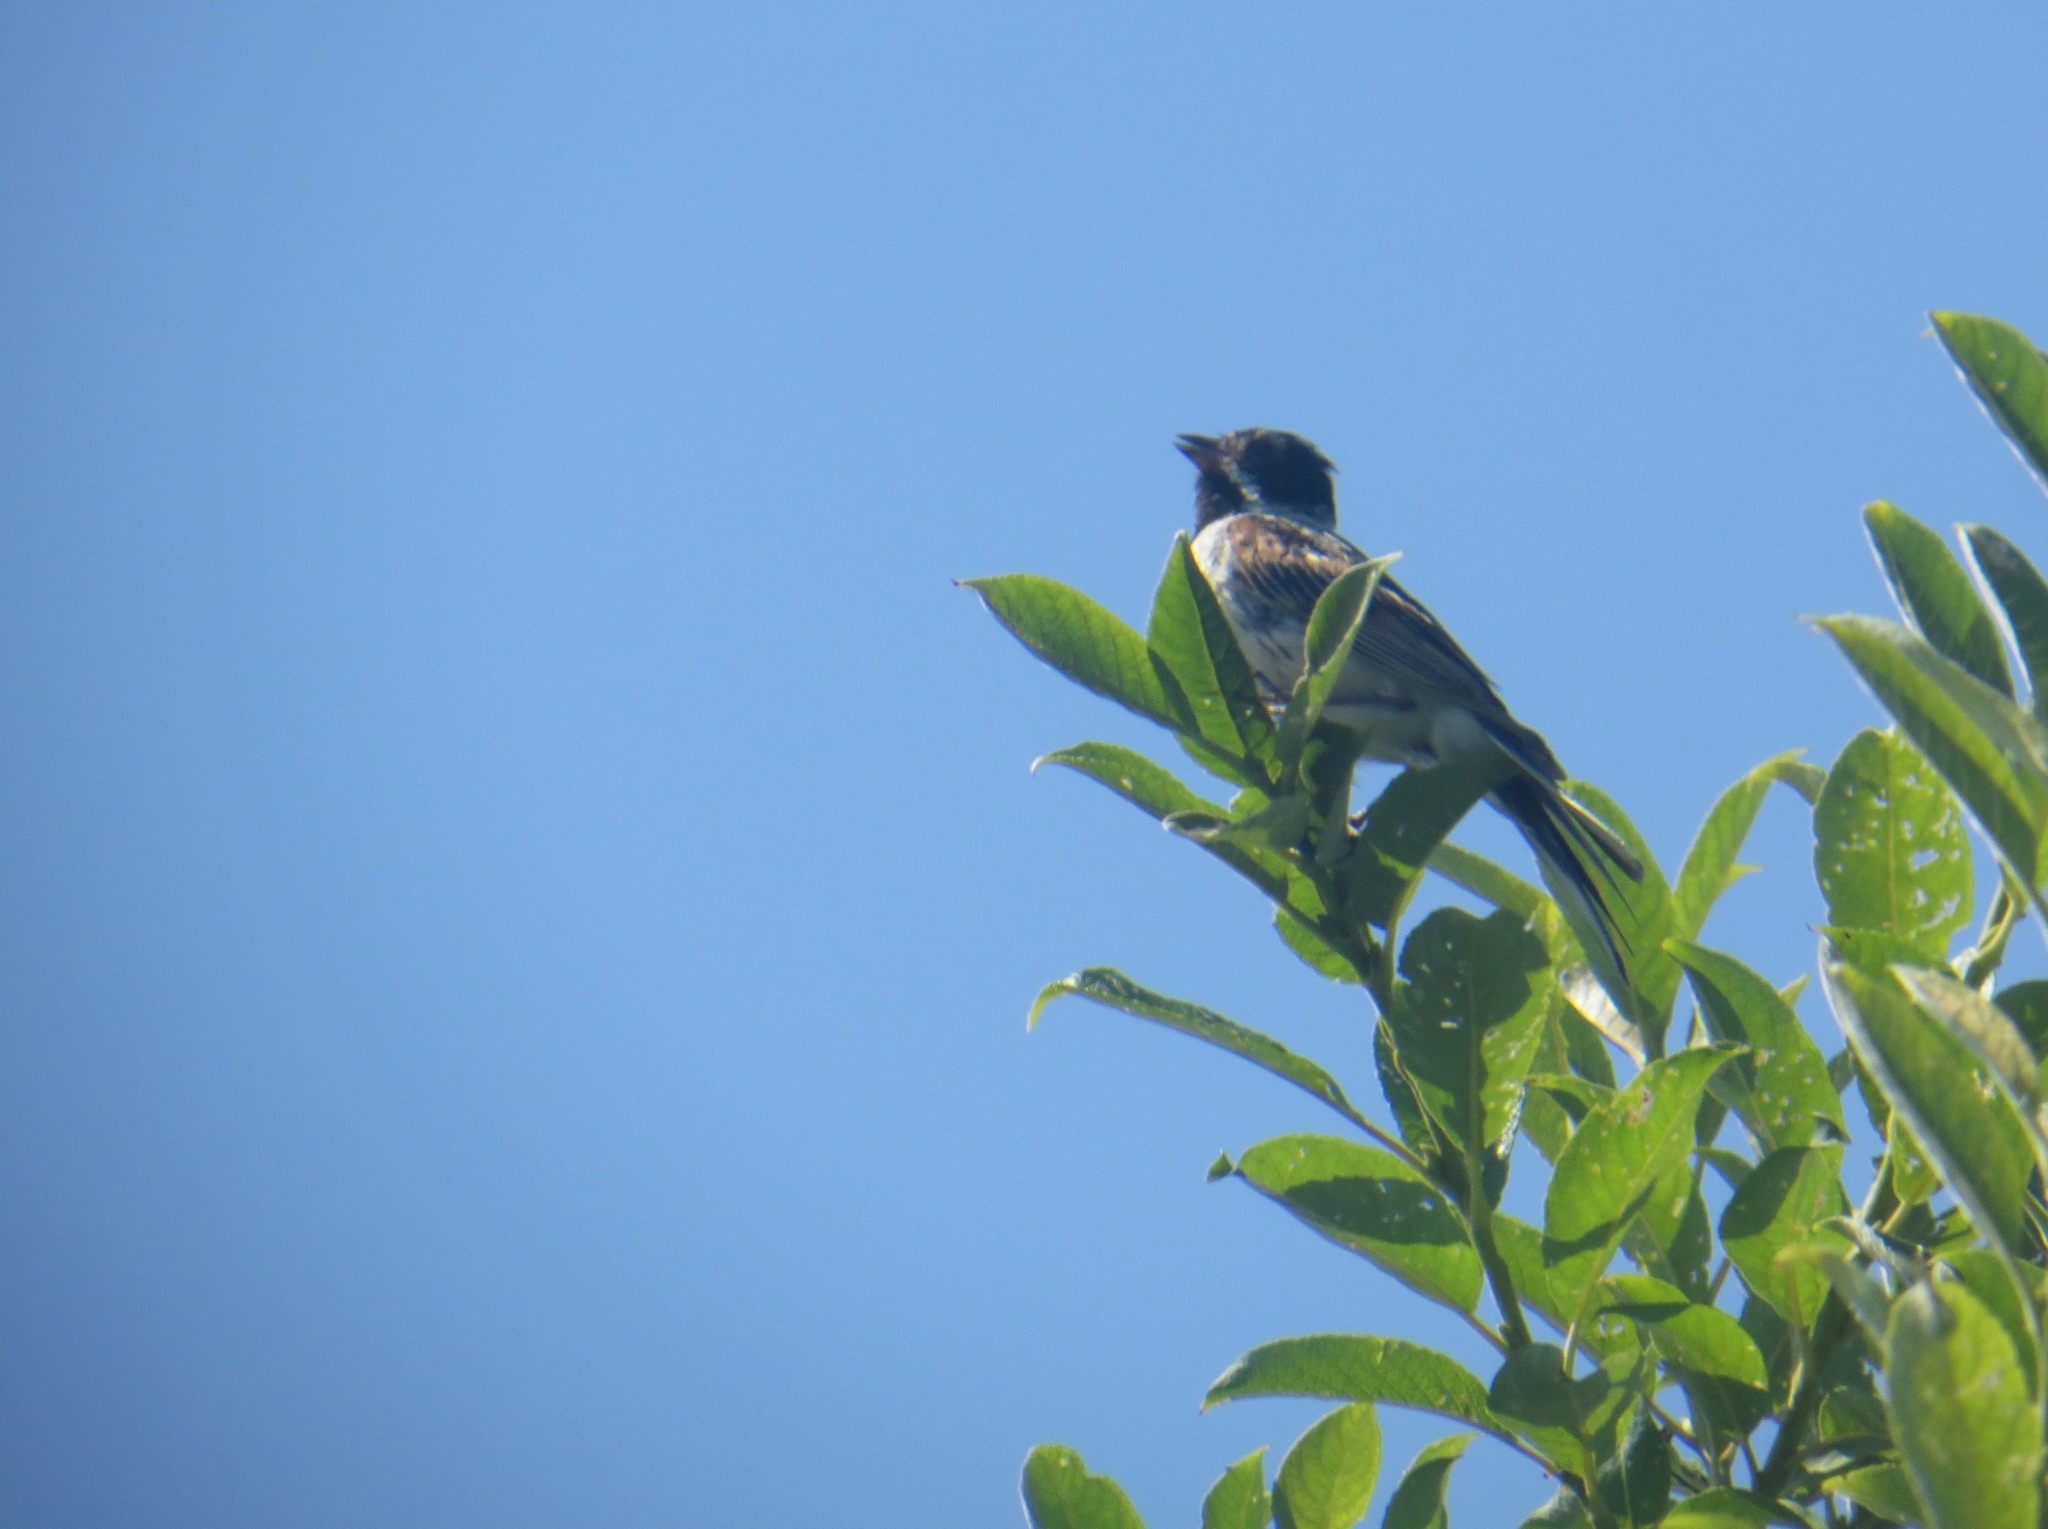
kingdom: Animalia
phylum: Chordata
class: Aves
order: Passeriformes
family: Emberizidae
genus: Emberiza
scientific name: Emberiza schoeniclus
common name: Reed bunting
